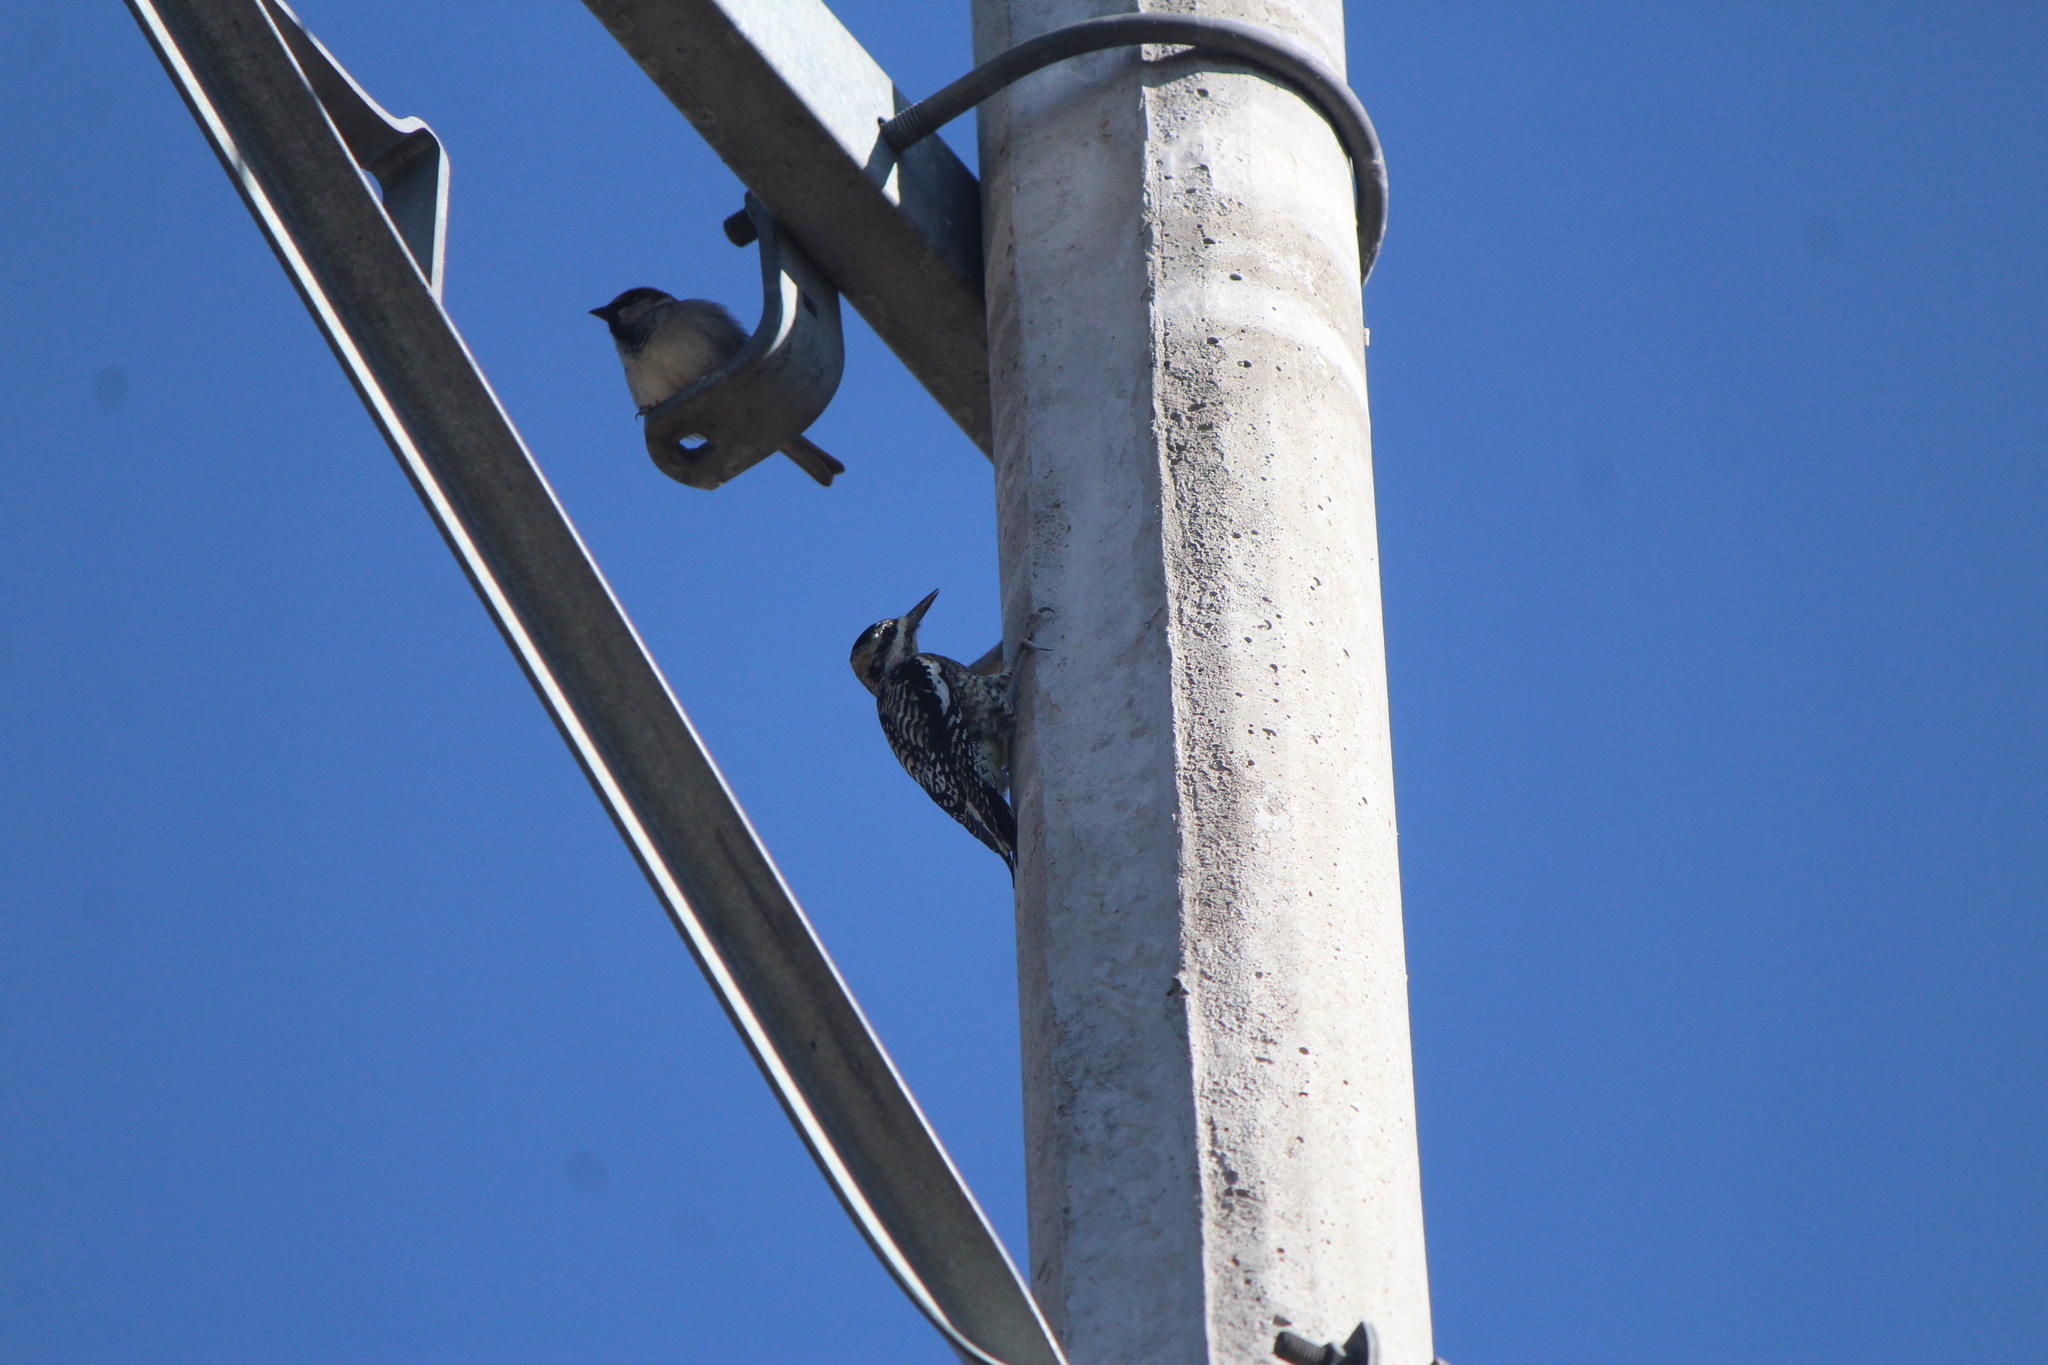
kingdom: Animalia
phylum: Chordata
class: Aves
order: Piciformes
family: Picidae
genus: Sphyrapicus
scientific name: Sphyrapicus varius
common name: Yellow-bellied sapsucker
